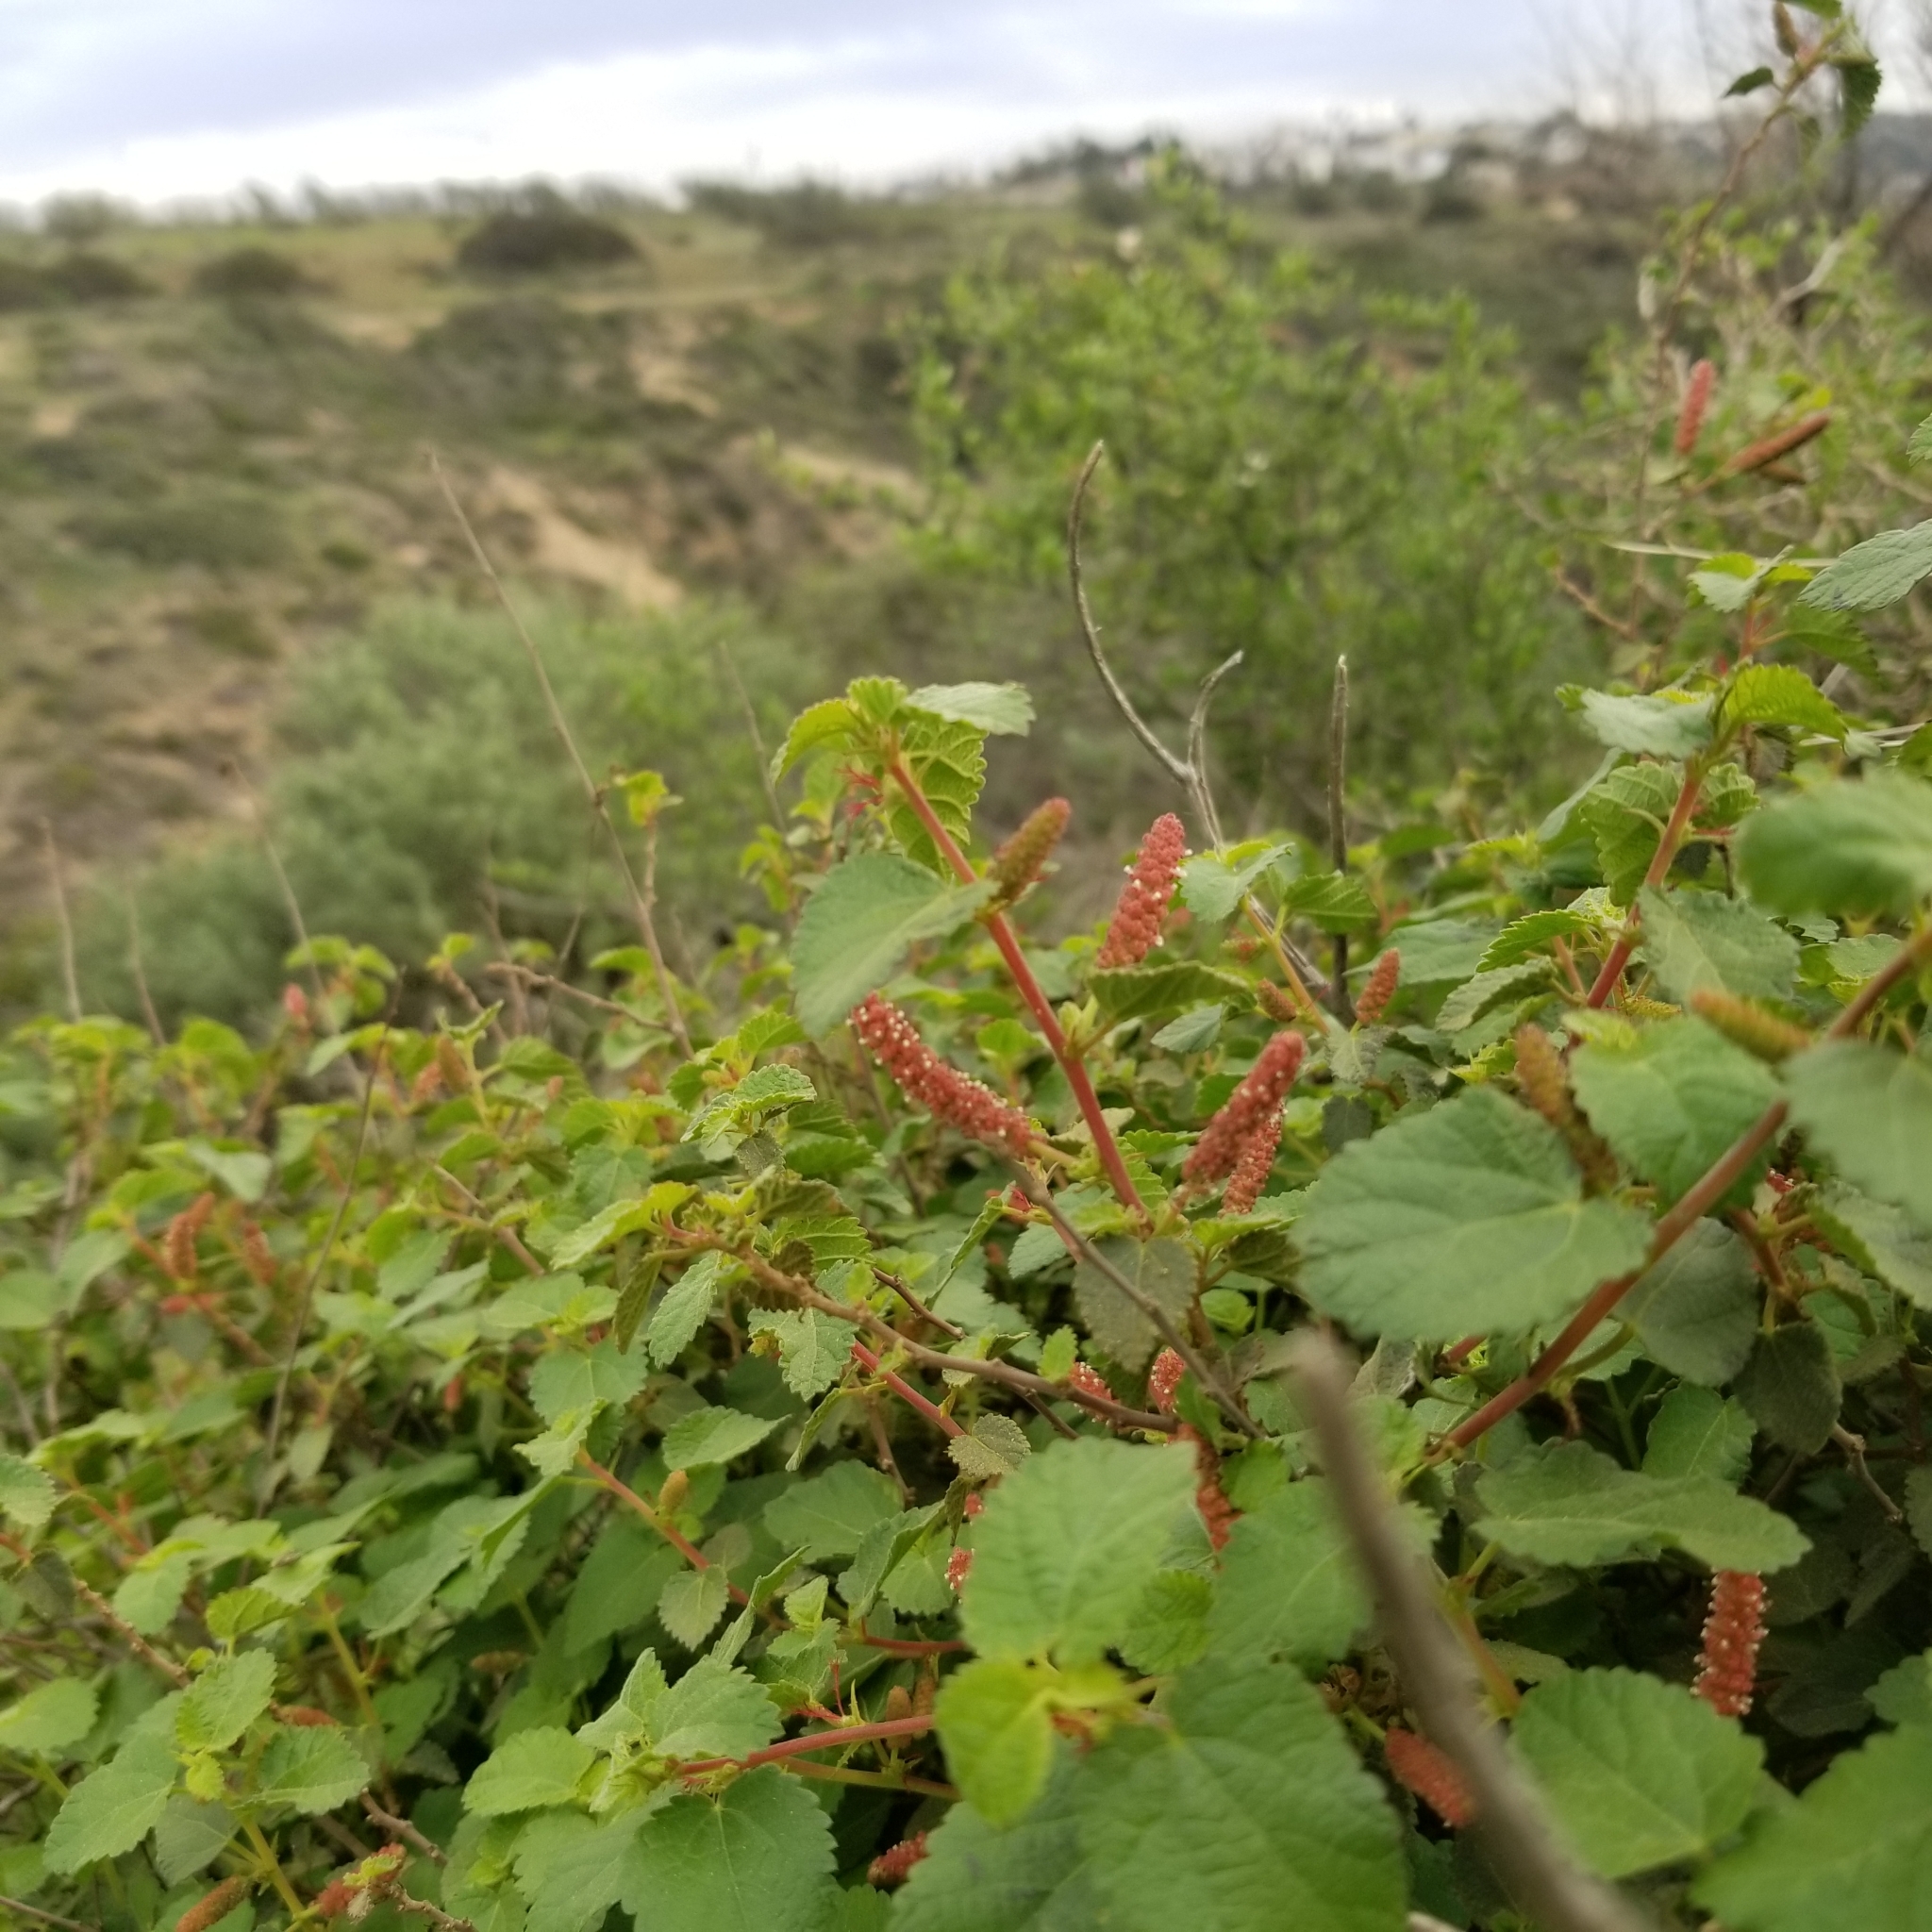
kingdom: Plantae
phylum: Tracheophyta
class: Magnoliopsida
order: Malpighiales
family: Euphorbiaceae
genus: Acalypha
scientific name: Acalypha californica
